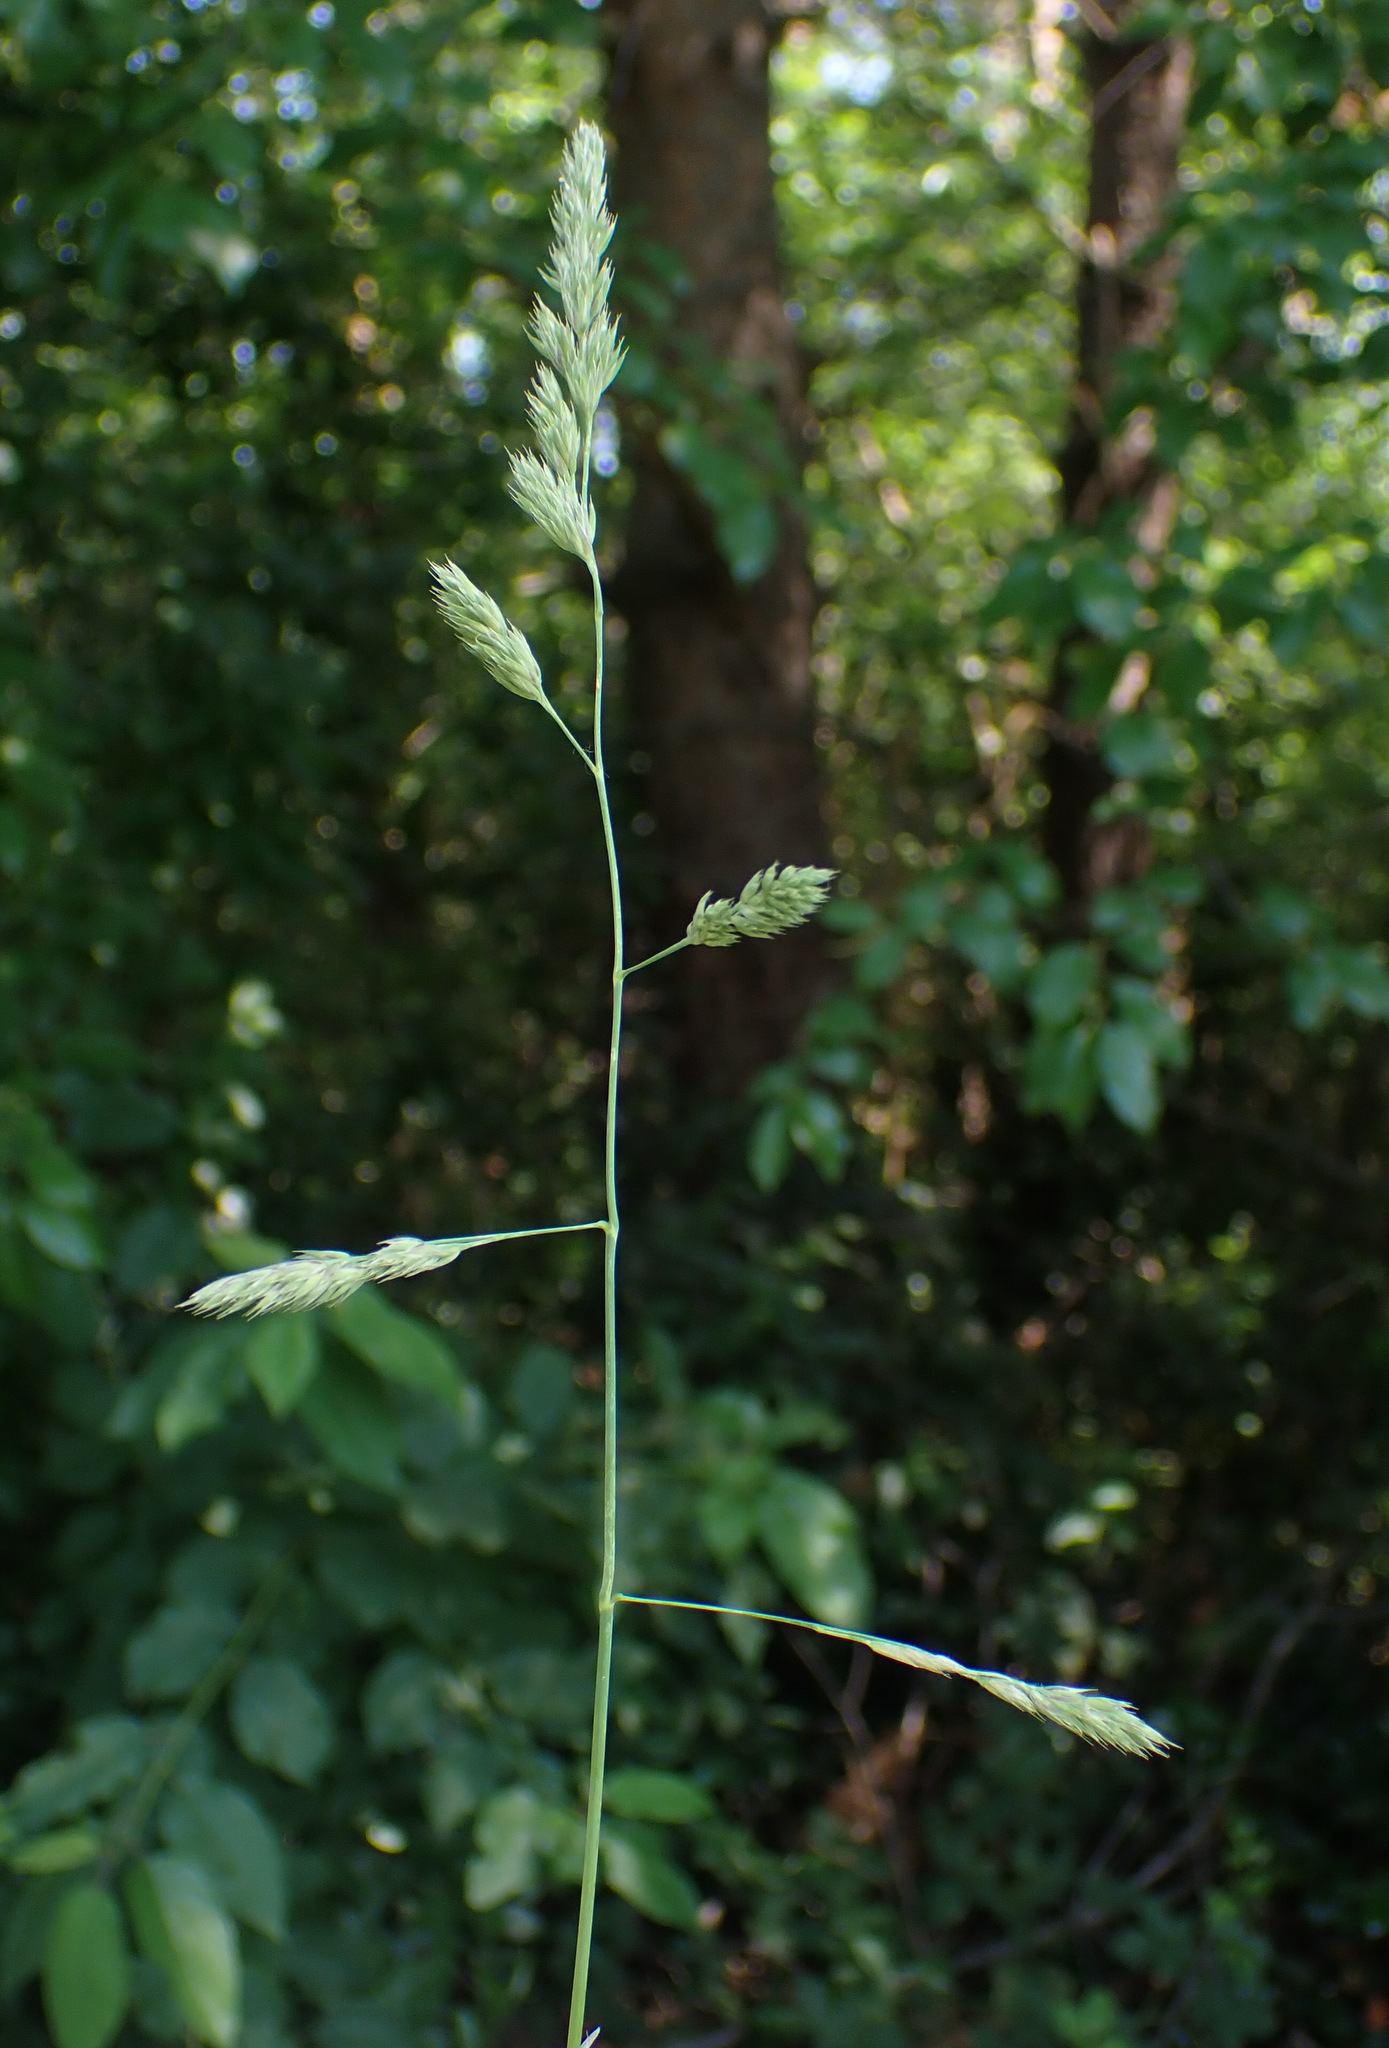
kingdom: Plantae
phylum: Tracheophyta
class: Liliopsida
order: Poales
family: Poaceae
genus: Dactylis
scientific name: Dactylis glomerata
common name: Orchardgrass
